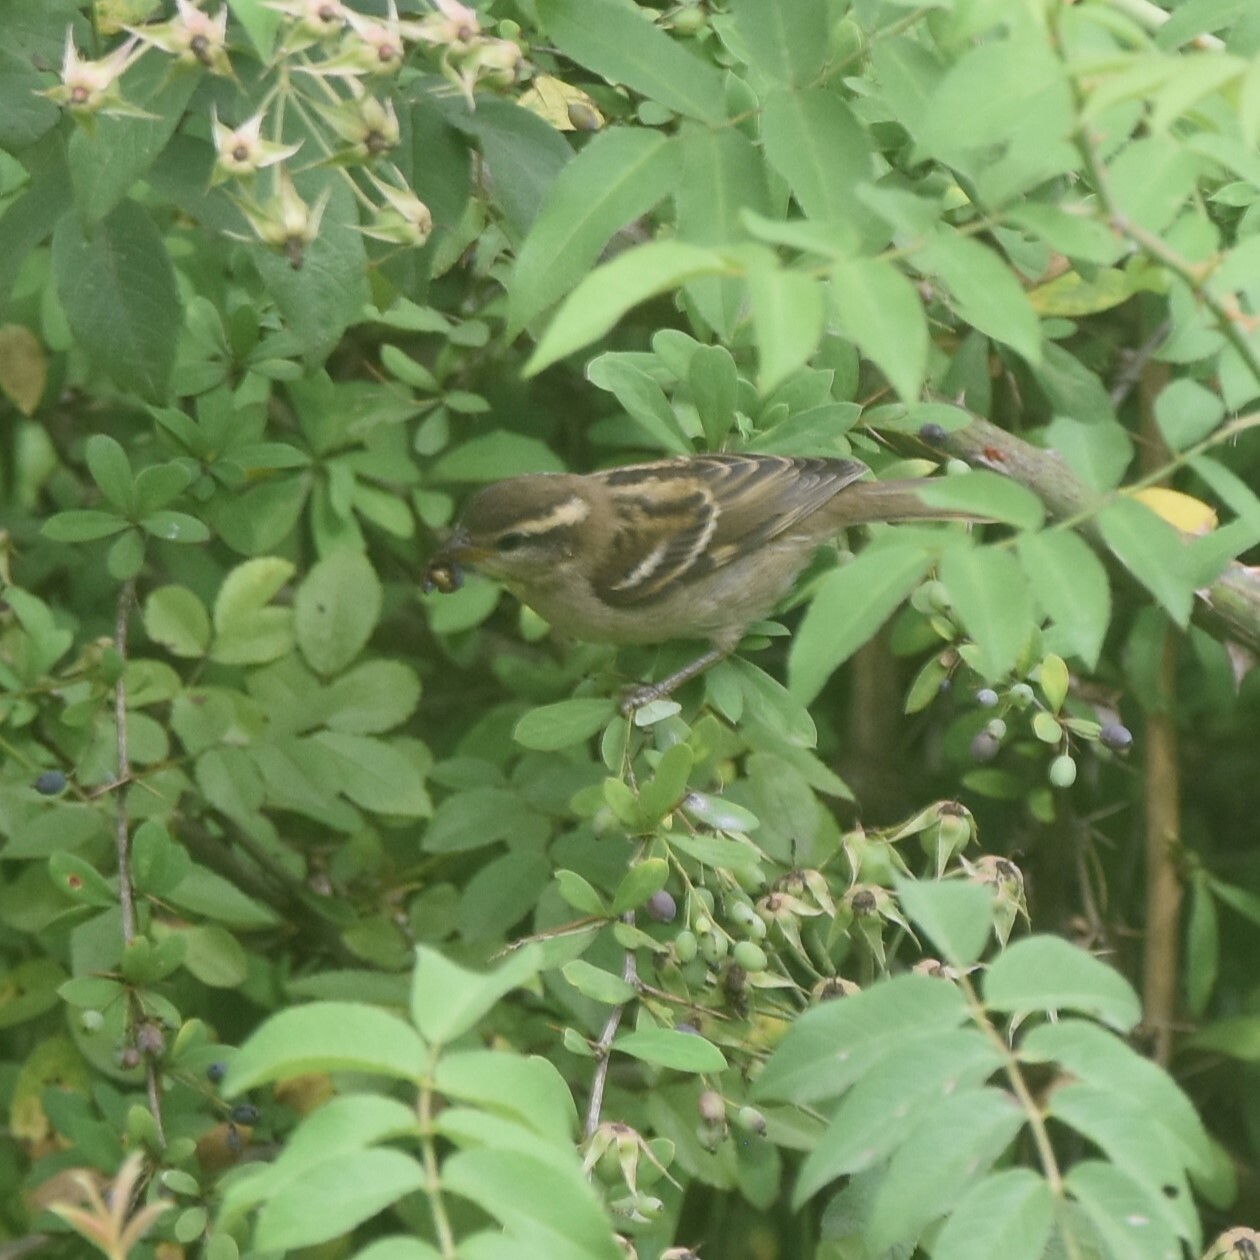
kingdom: Animalia
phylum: Chordata
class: Aves
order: Passeriformes
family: Passeridae
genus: Passer
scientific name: Passer cinnamomeus
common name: Russet sparrow
